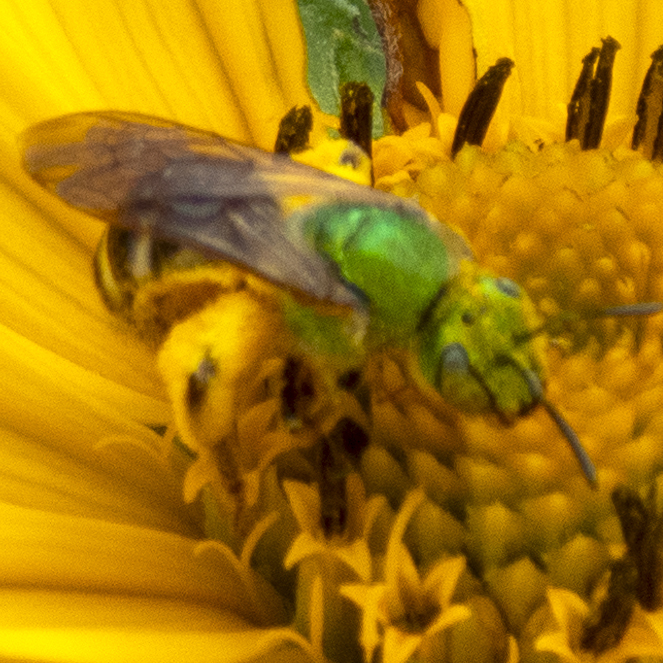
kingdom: Animalia
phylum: Arthropoda
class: Insecta
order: Hymenoptera
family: Halictidae
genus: Agapostemon
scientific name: Agapostemon virescens
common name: Bicolored striped sweat bee
